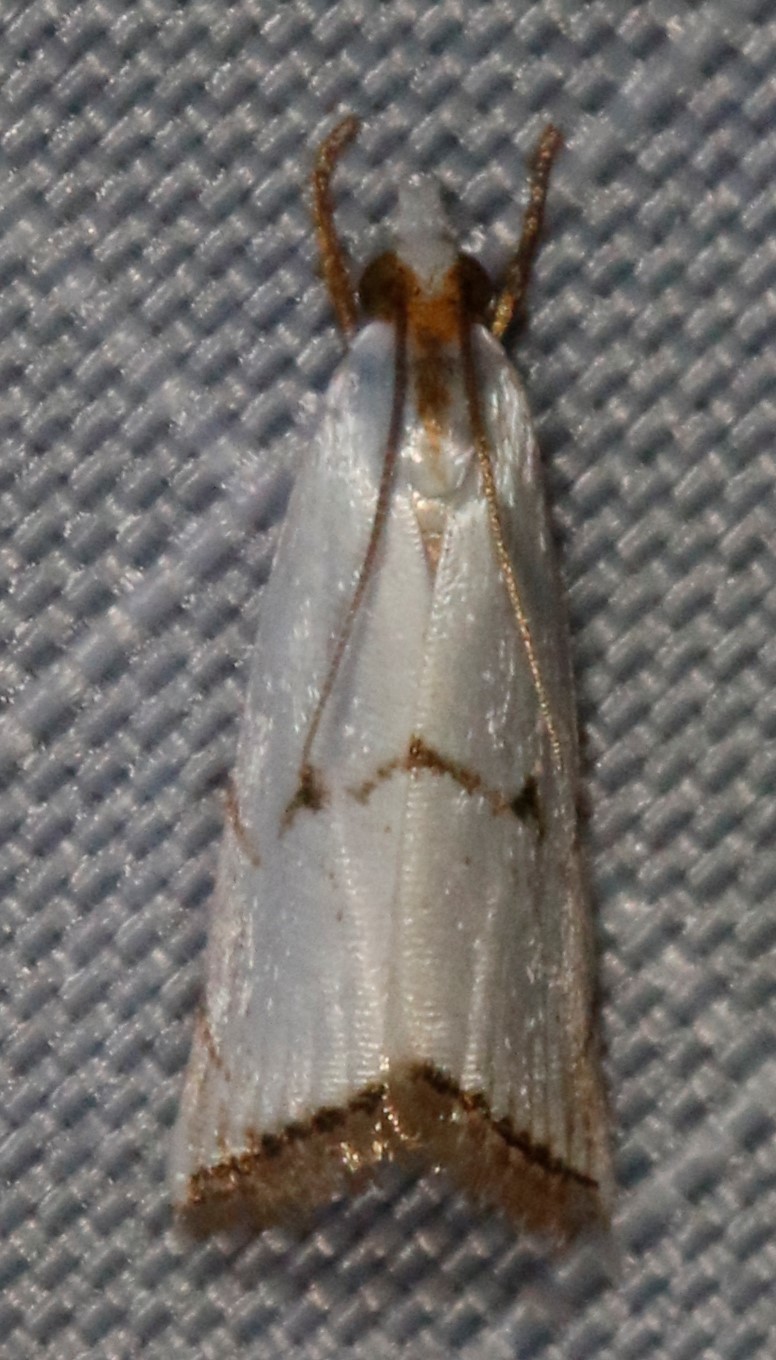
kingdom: Animalia
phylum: Arthropoda
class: Insecta
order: Lepidoptera
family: Crambidae
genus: Argyria
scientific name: Argyria pusillalis
